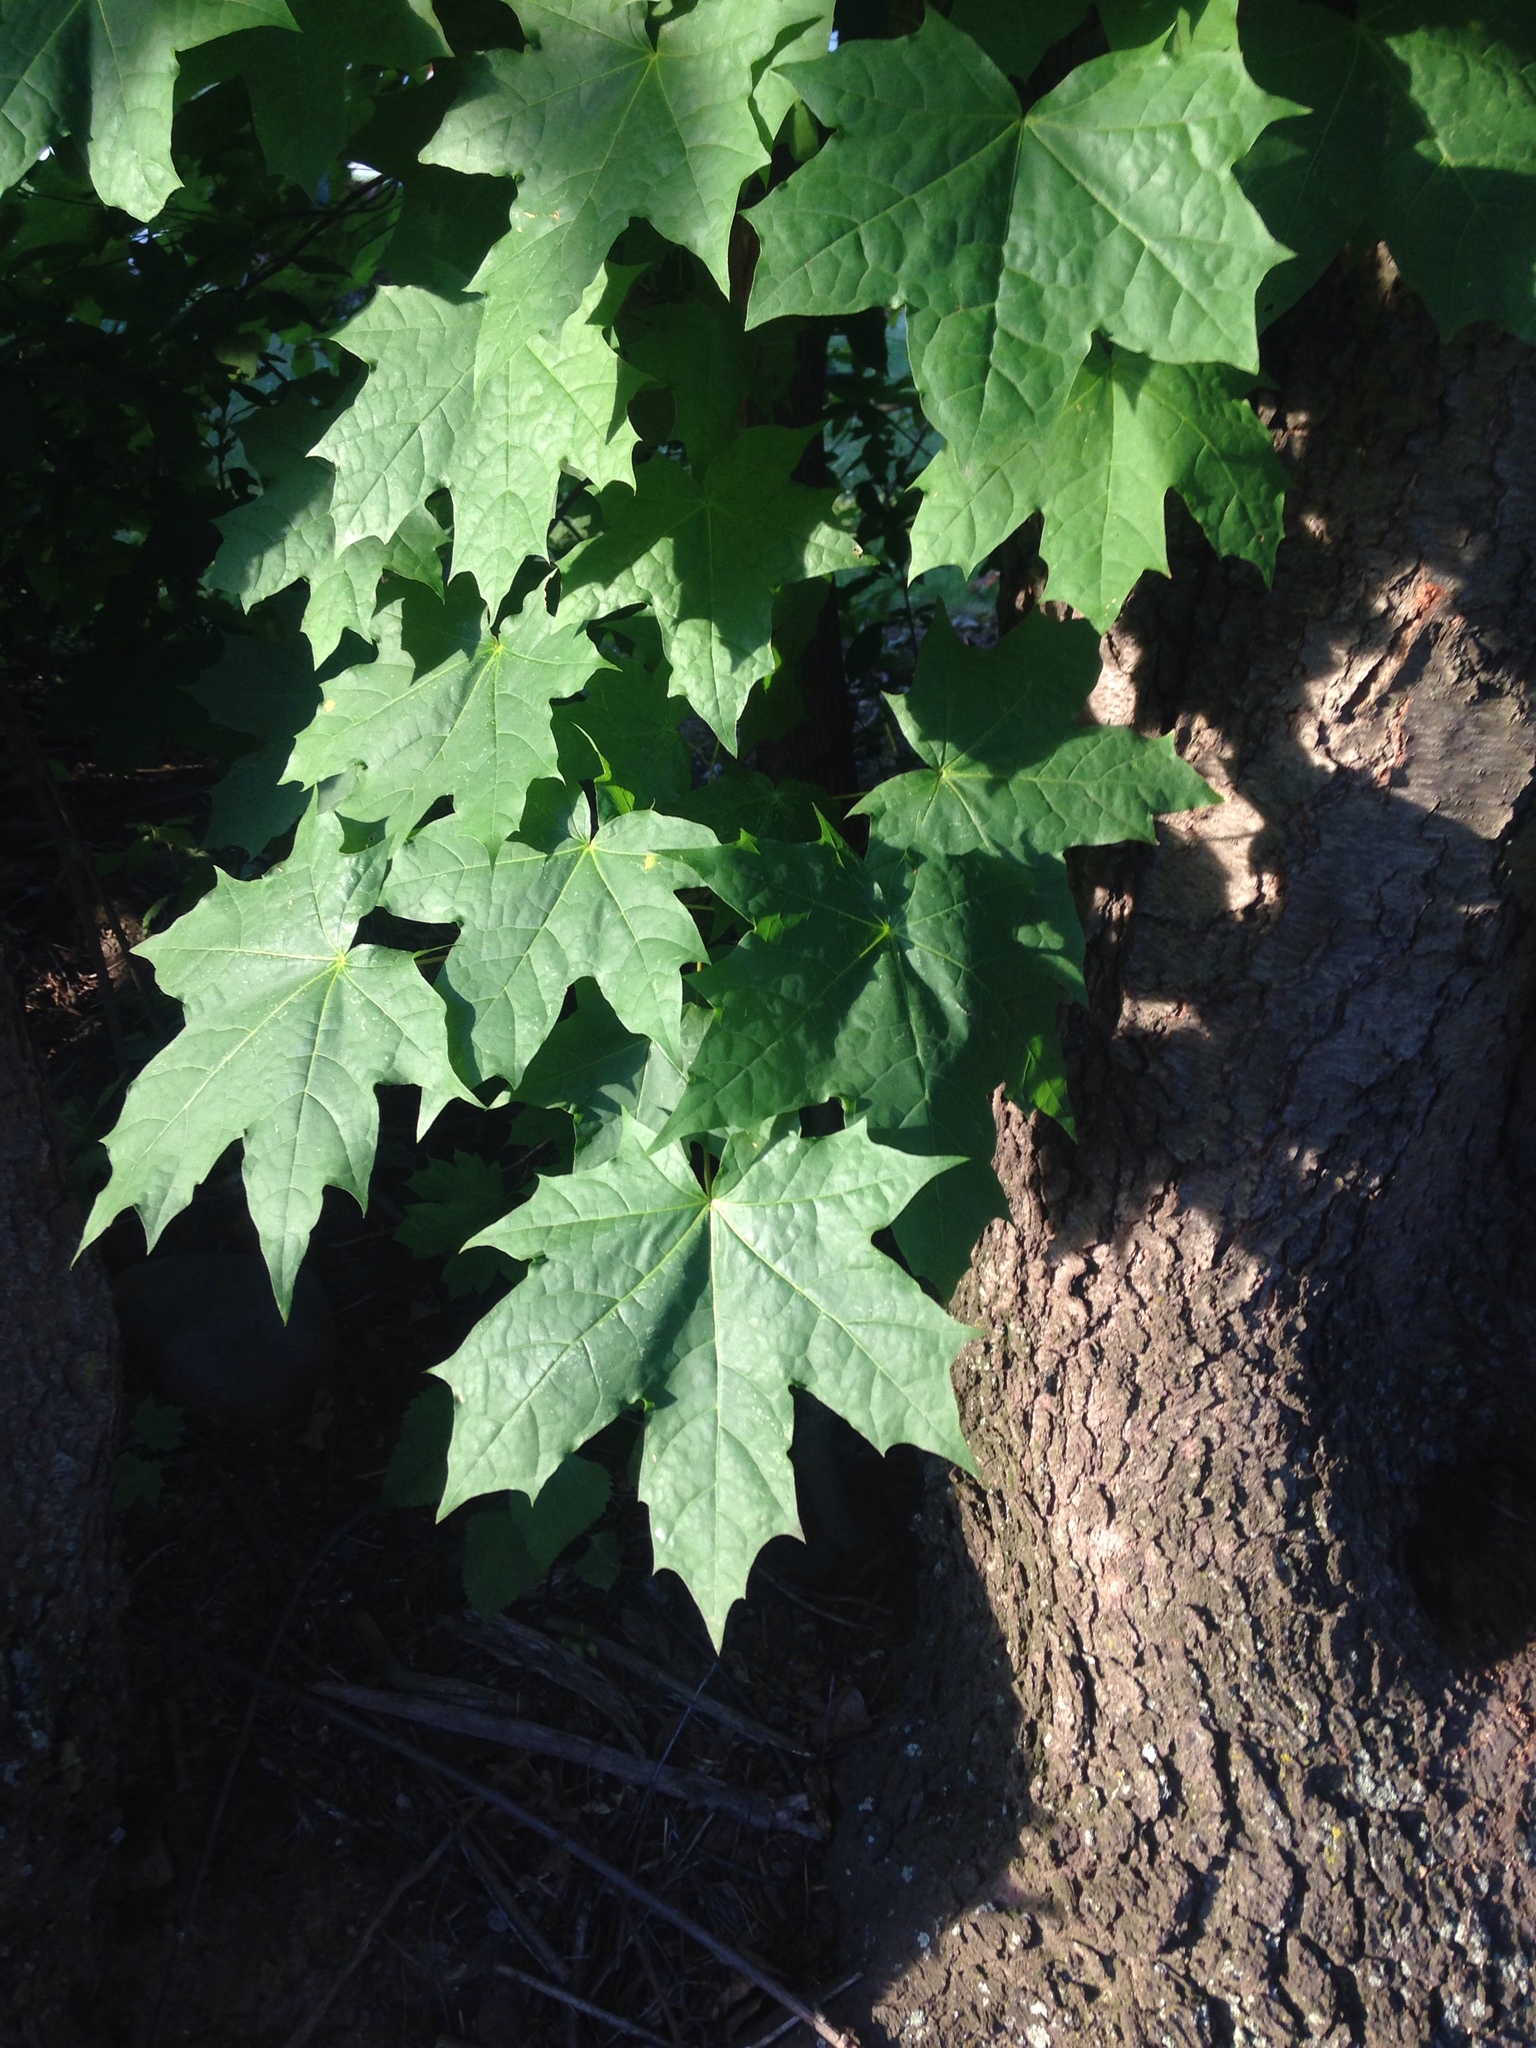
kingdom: Plantae
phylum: Tracheophyta
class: Magnoliopsida
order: Sapindales
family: Sapindaceae
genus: Acer
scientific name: Acer platanoides
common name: Norway maple
